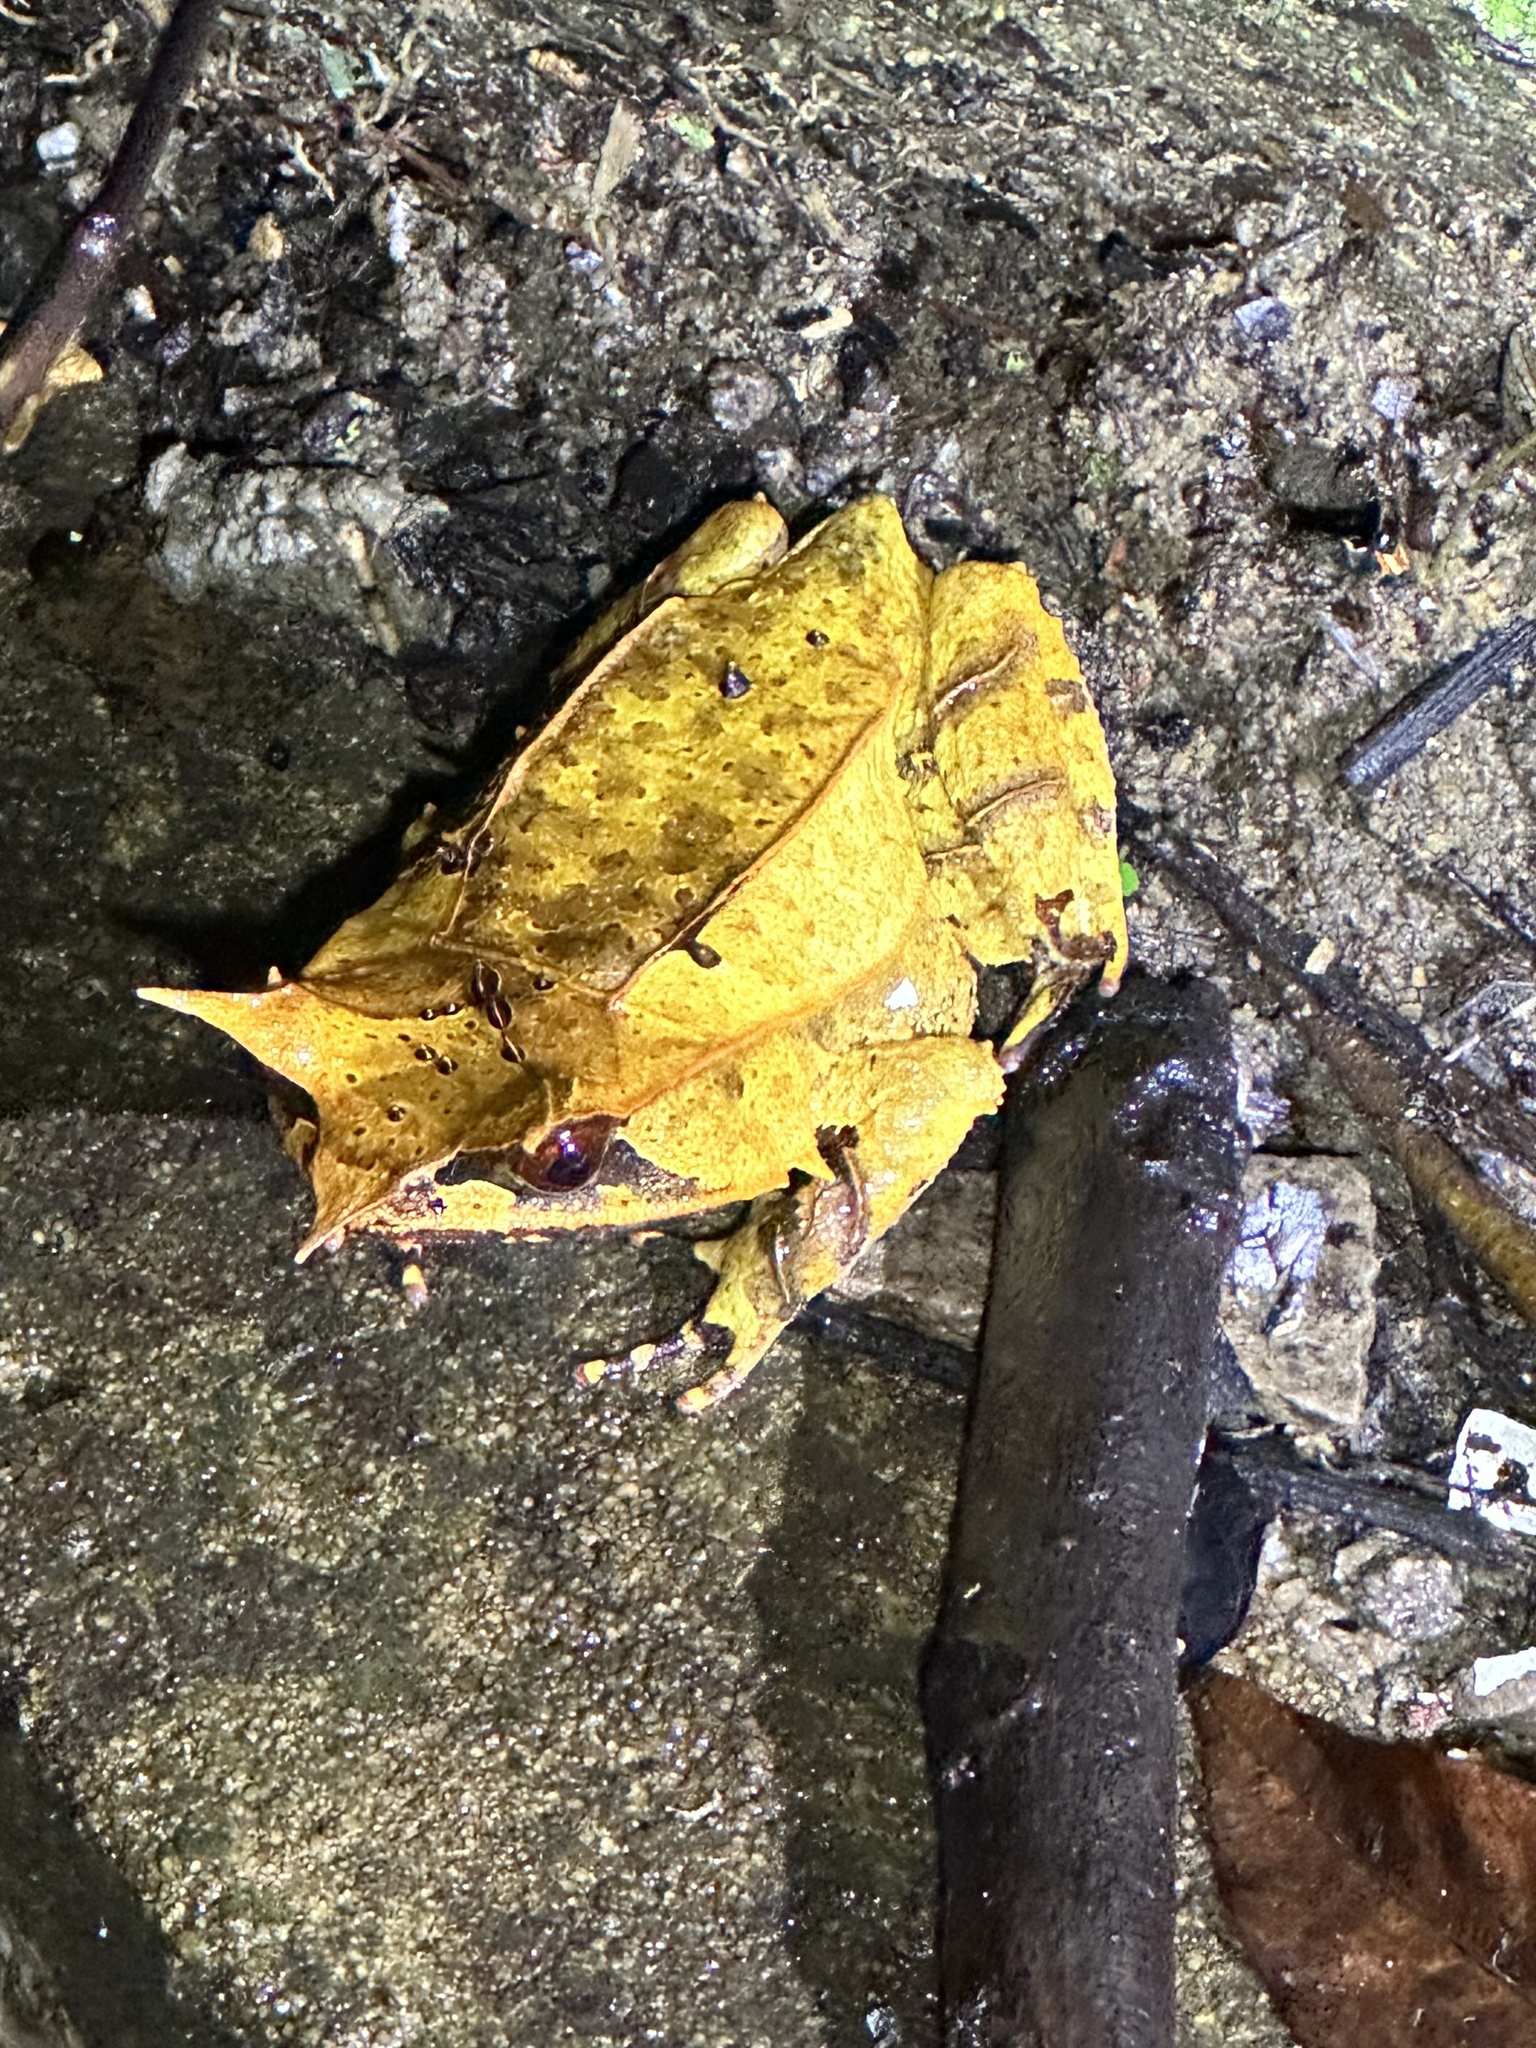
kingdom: Animalia
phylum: Chordata
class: Amphibia
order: Anura
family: Megophryidae
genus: Megophrys
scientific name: Megophrys nasuta
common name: Malayan horned frog
